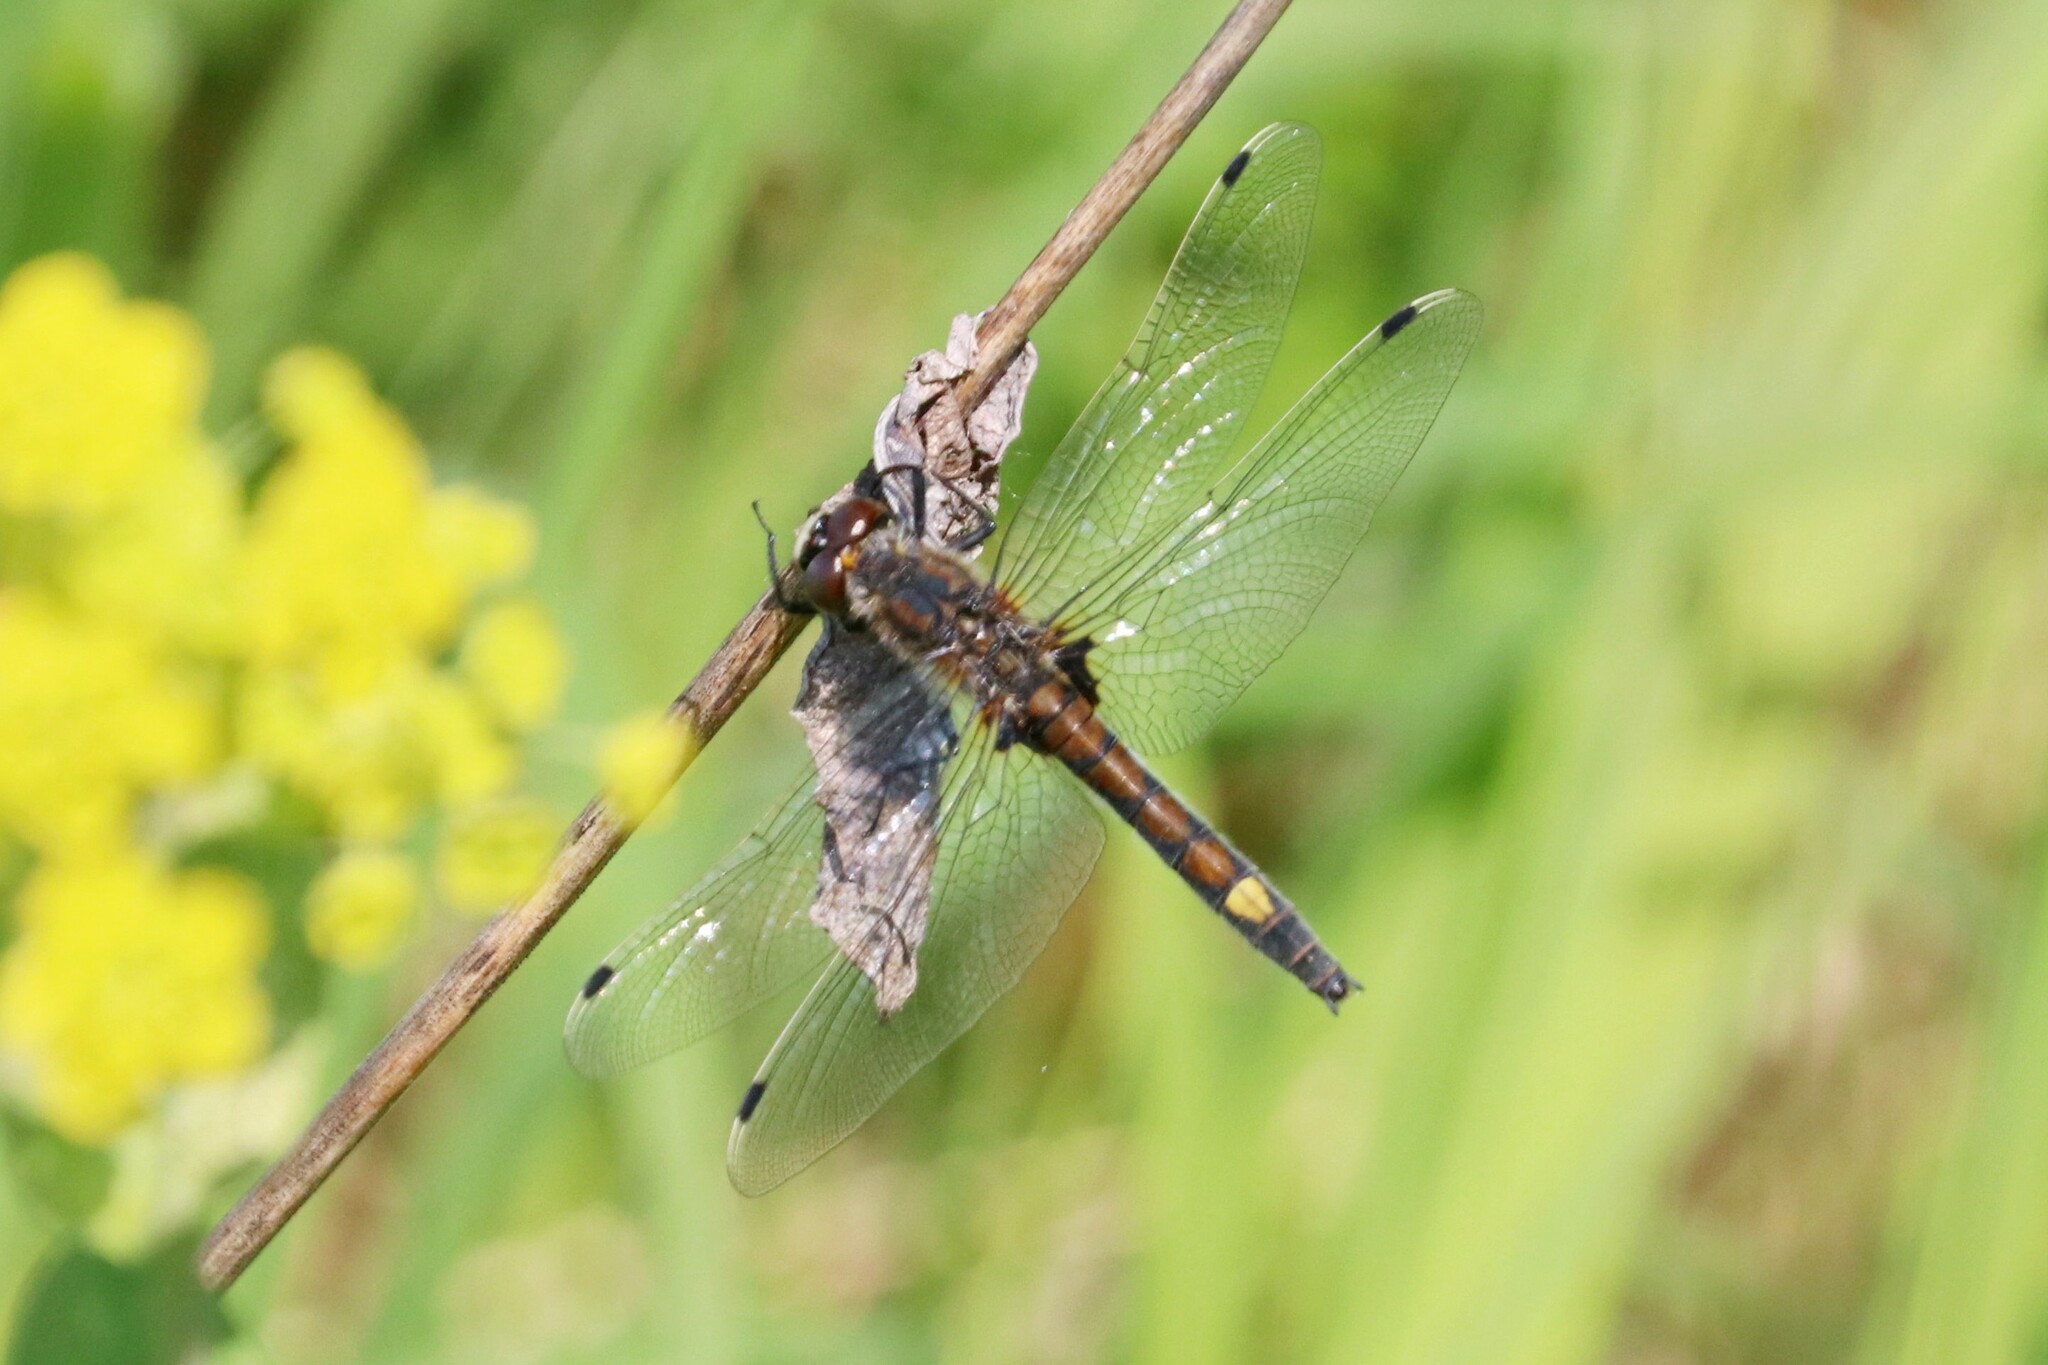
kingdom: Animalia
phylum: Arthropoda
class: Insecta
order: Odonata
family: Libellulidae
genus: Leucorrhinia
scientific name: Leucorrhinia pectoralis
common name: Yellow-spotted whiteface
